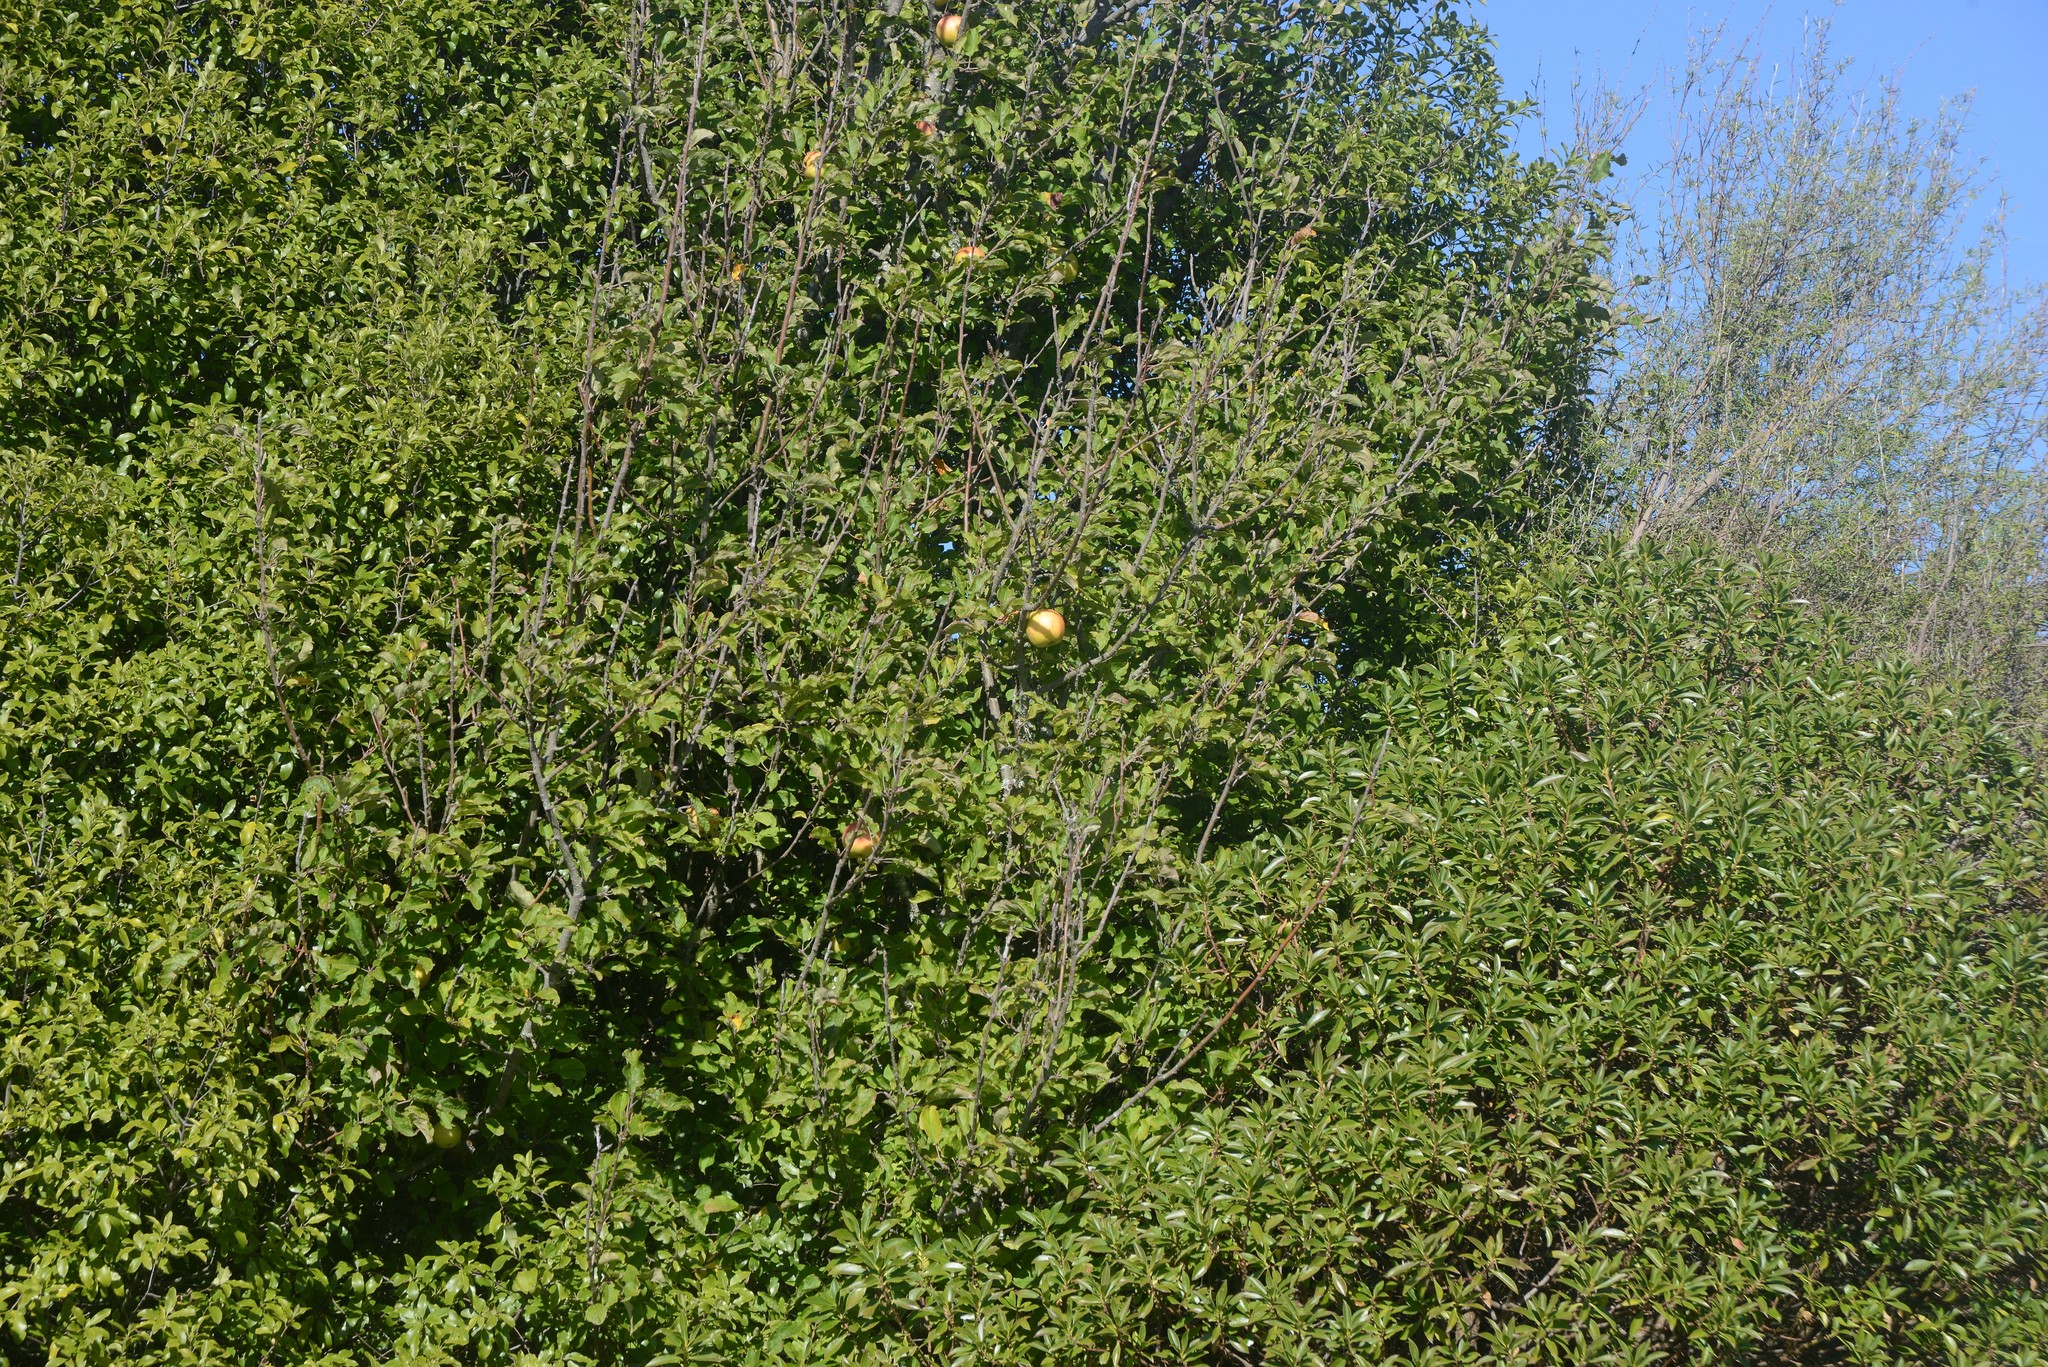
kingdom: Plantae
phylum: Tracheophyta
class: Magnoliopsida
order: Rosales
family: Rosaceae
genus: Malus
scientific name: Malus domestica
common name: Apple
